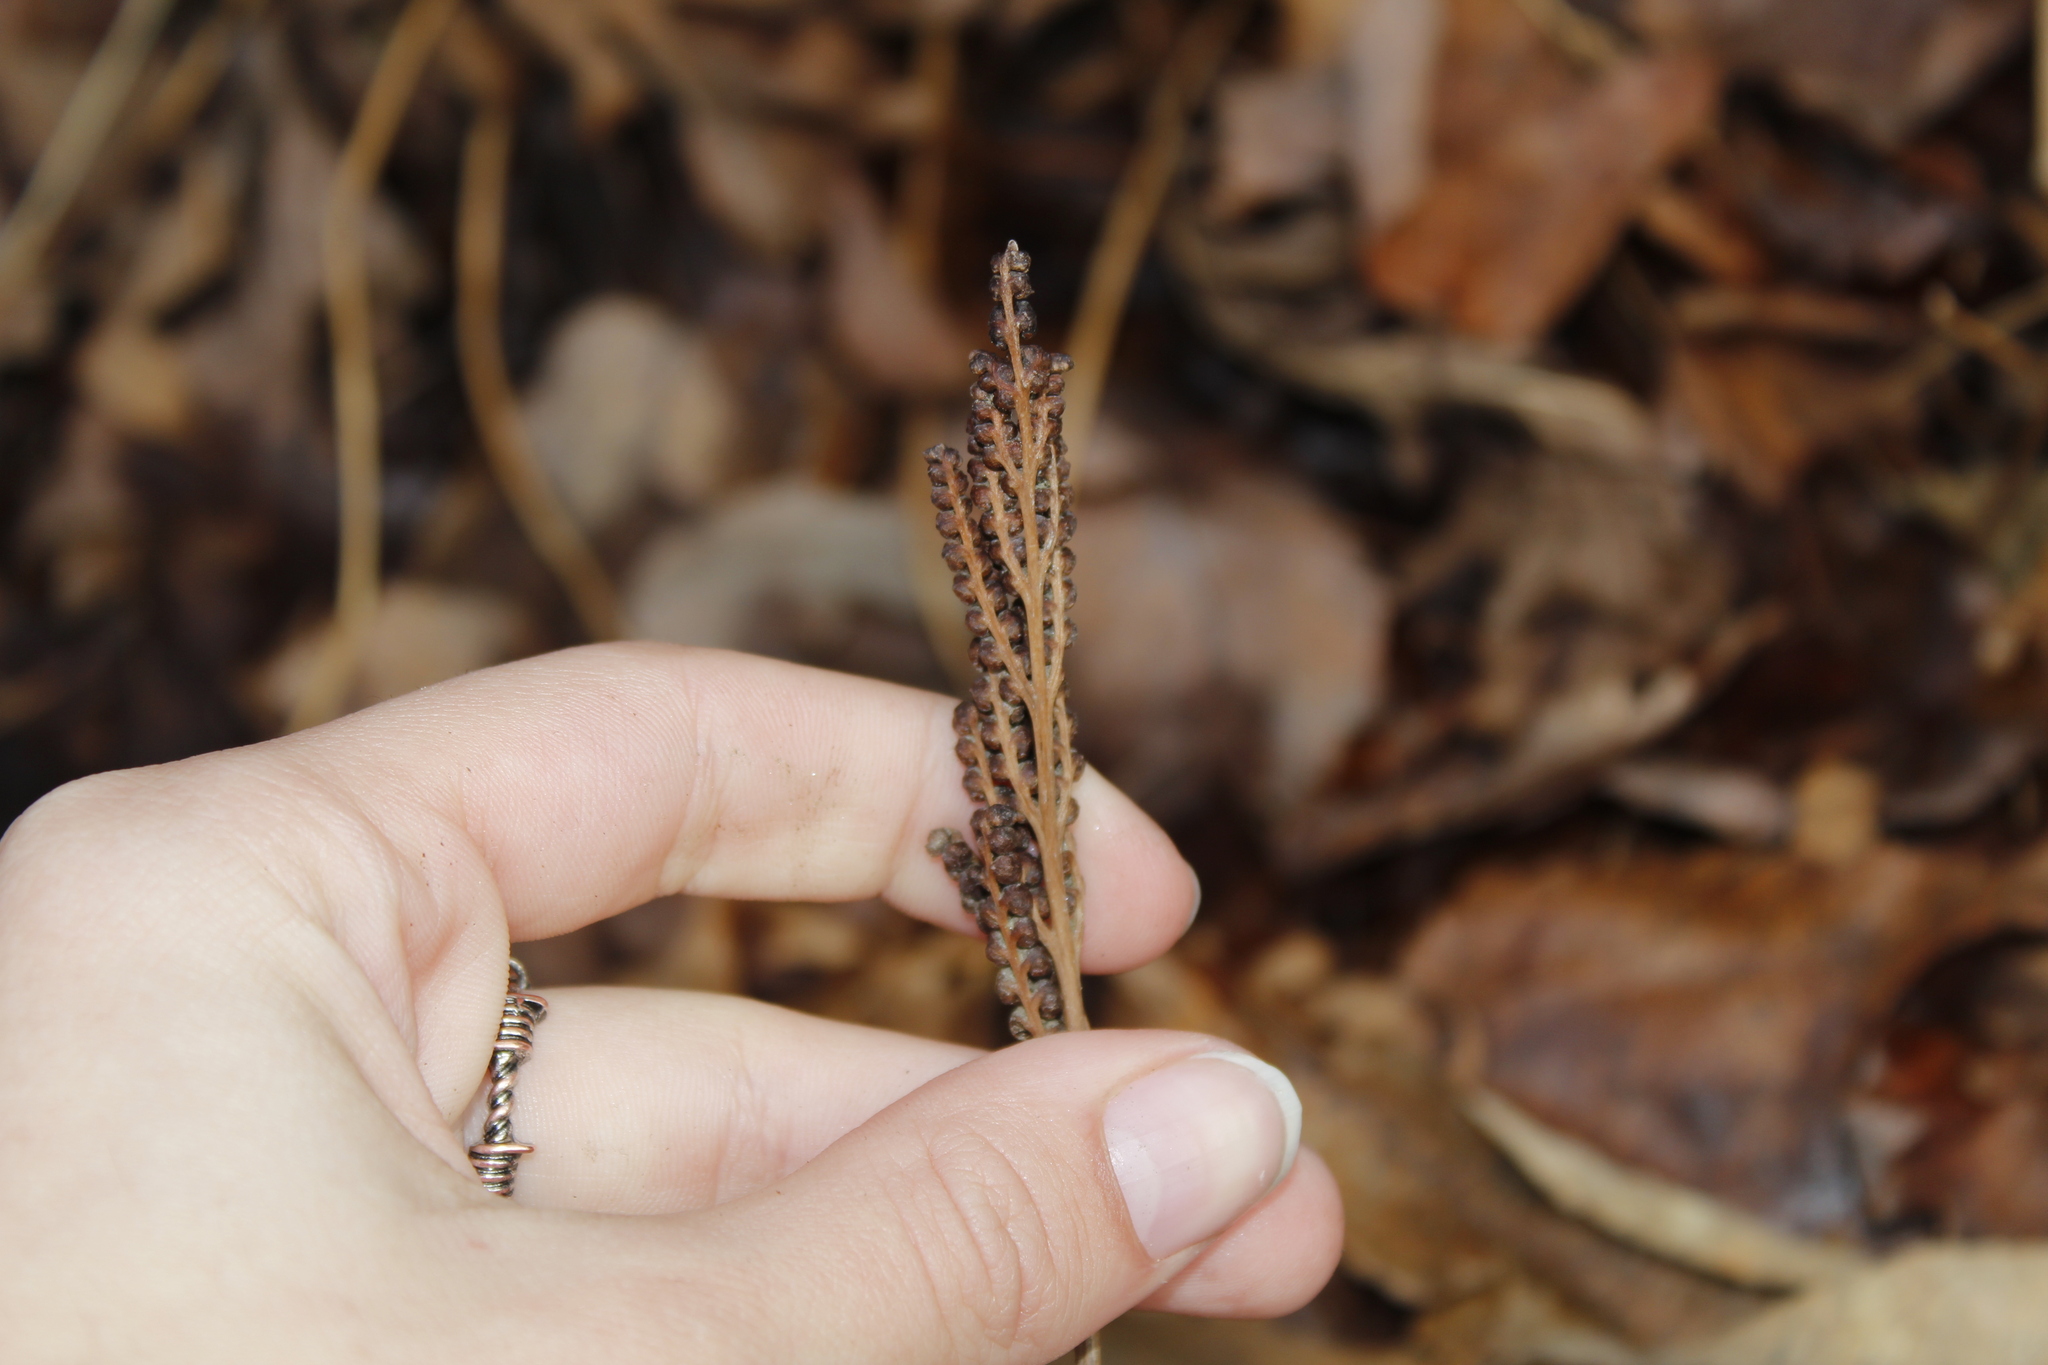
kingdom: Plantae
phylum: Tracheophyta
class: Polypodiopsida
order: Polypodiales
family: Onocleaceae
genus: Onoclea
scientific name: Onoclea sensibilis
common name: Sensitive fern
